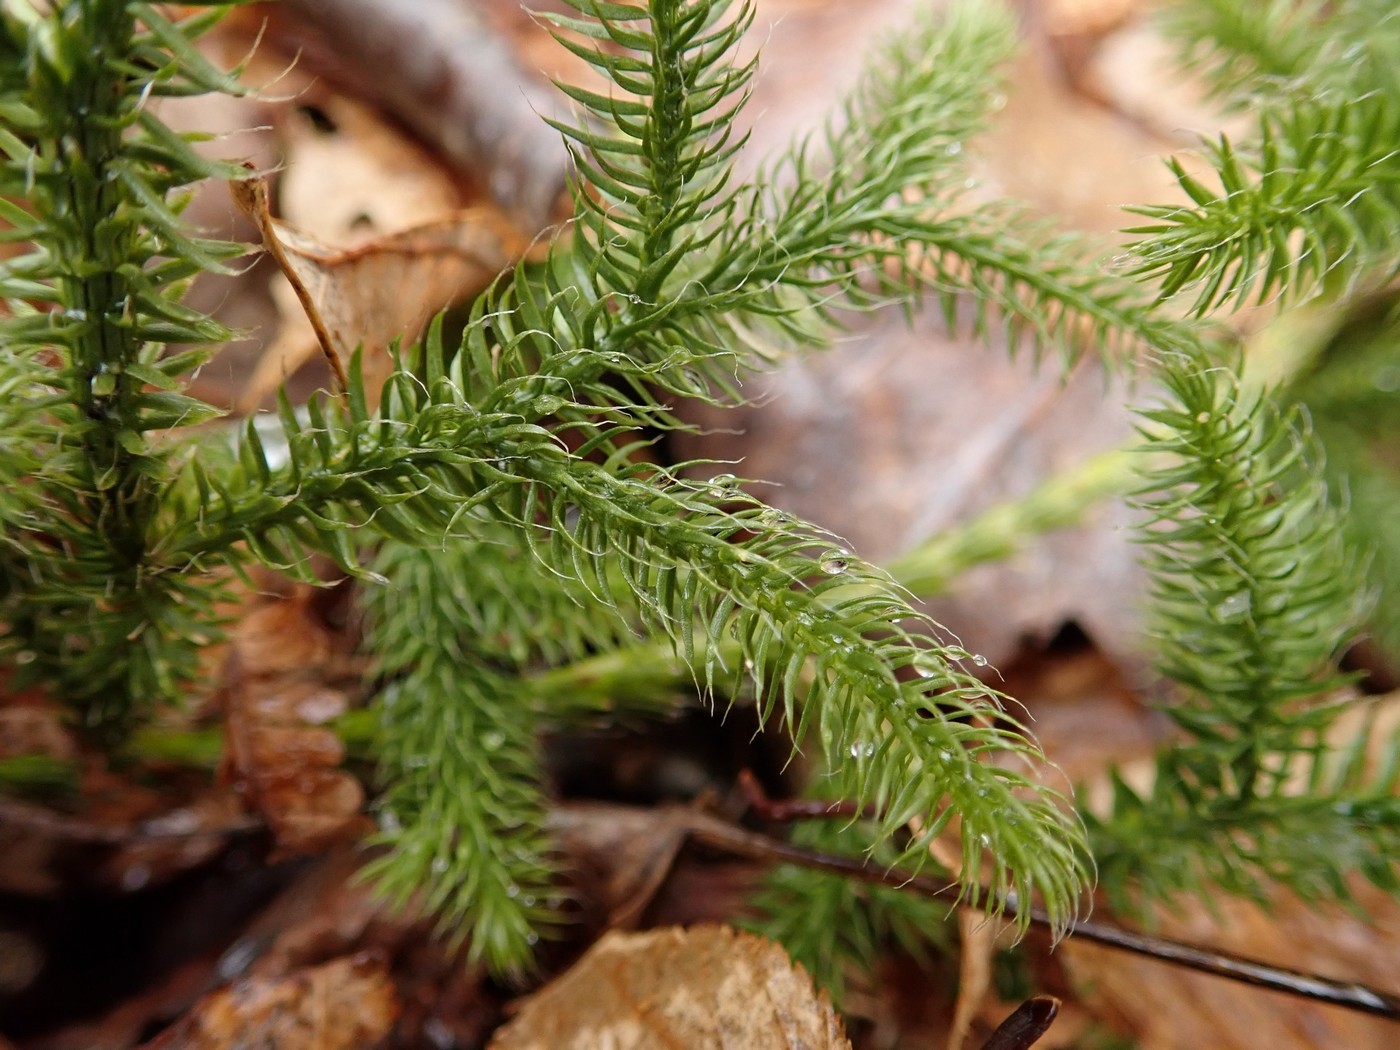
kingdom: Plantae
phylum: Tracheophyta
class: Lycopodiopsida
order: Lycopodiales
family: Lycopodiaceae
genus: Lycopodium
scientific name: Lycopodium clavatum
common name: Stag's-horn clubmoss
